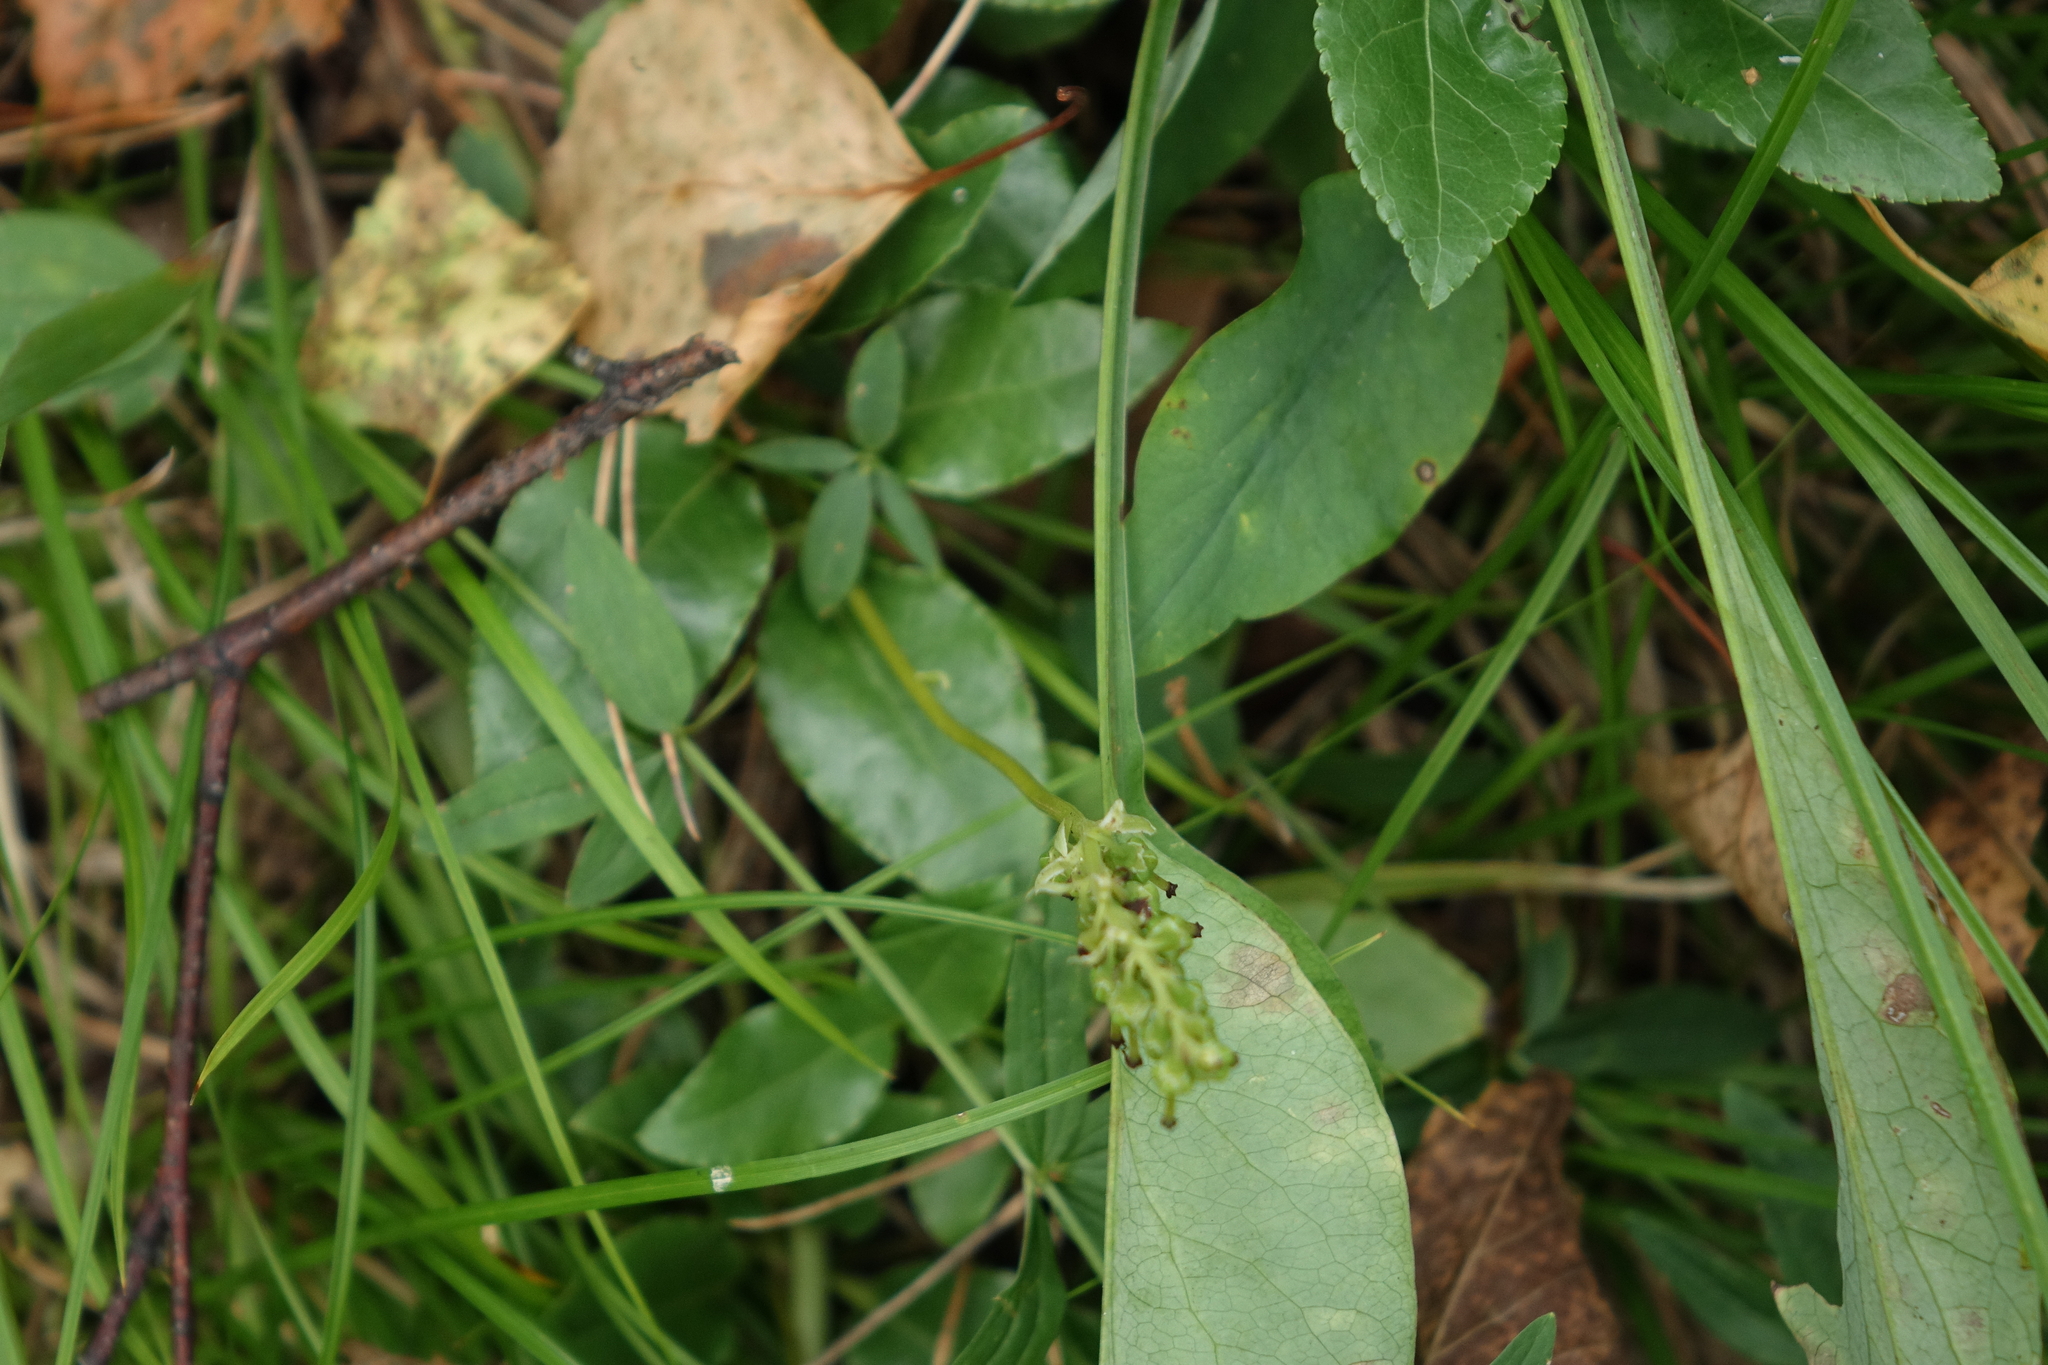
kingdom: Plantae
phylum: Tracheophyta
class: Magnoliopsida
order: Ericales
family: Ericaceae
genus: Orthilia
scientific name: Orthilia secunda
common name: One-sided orthilia
